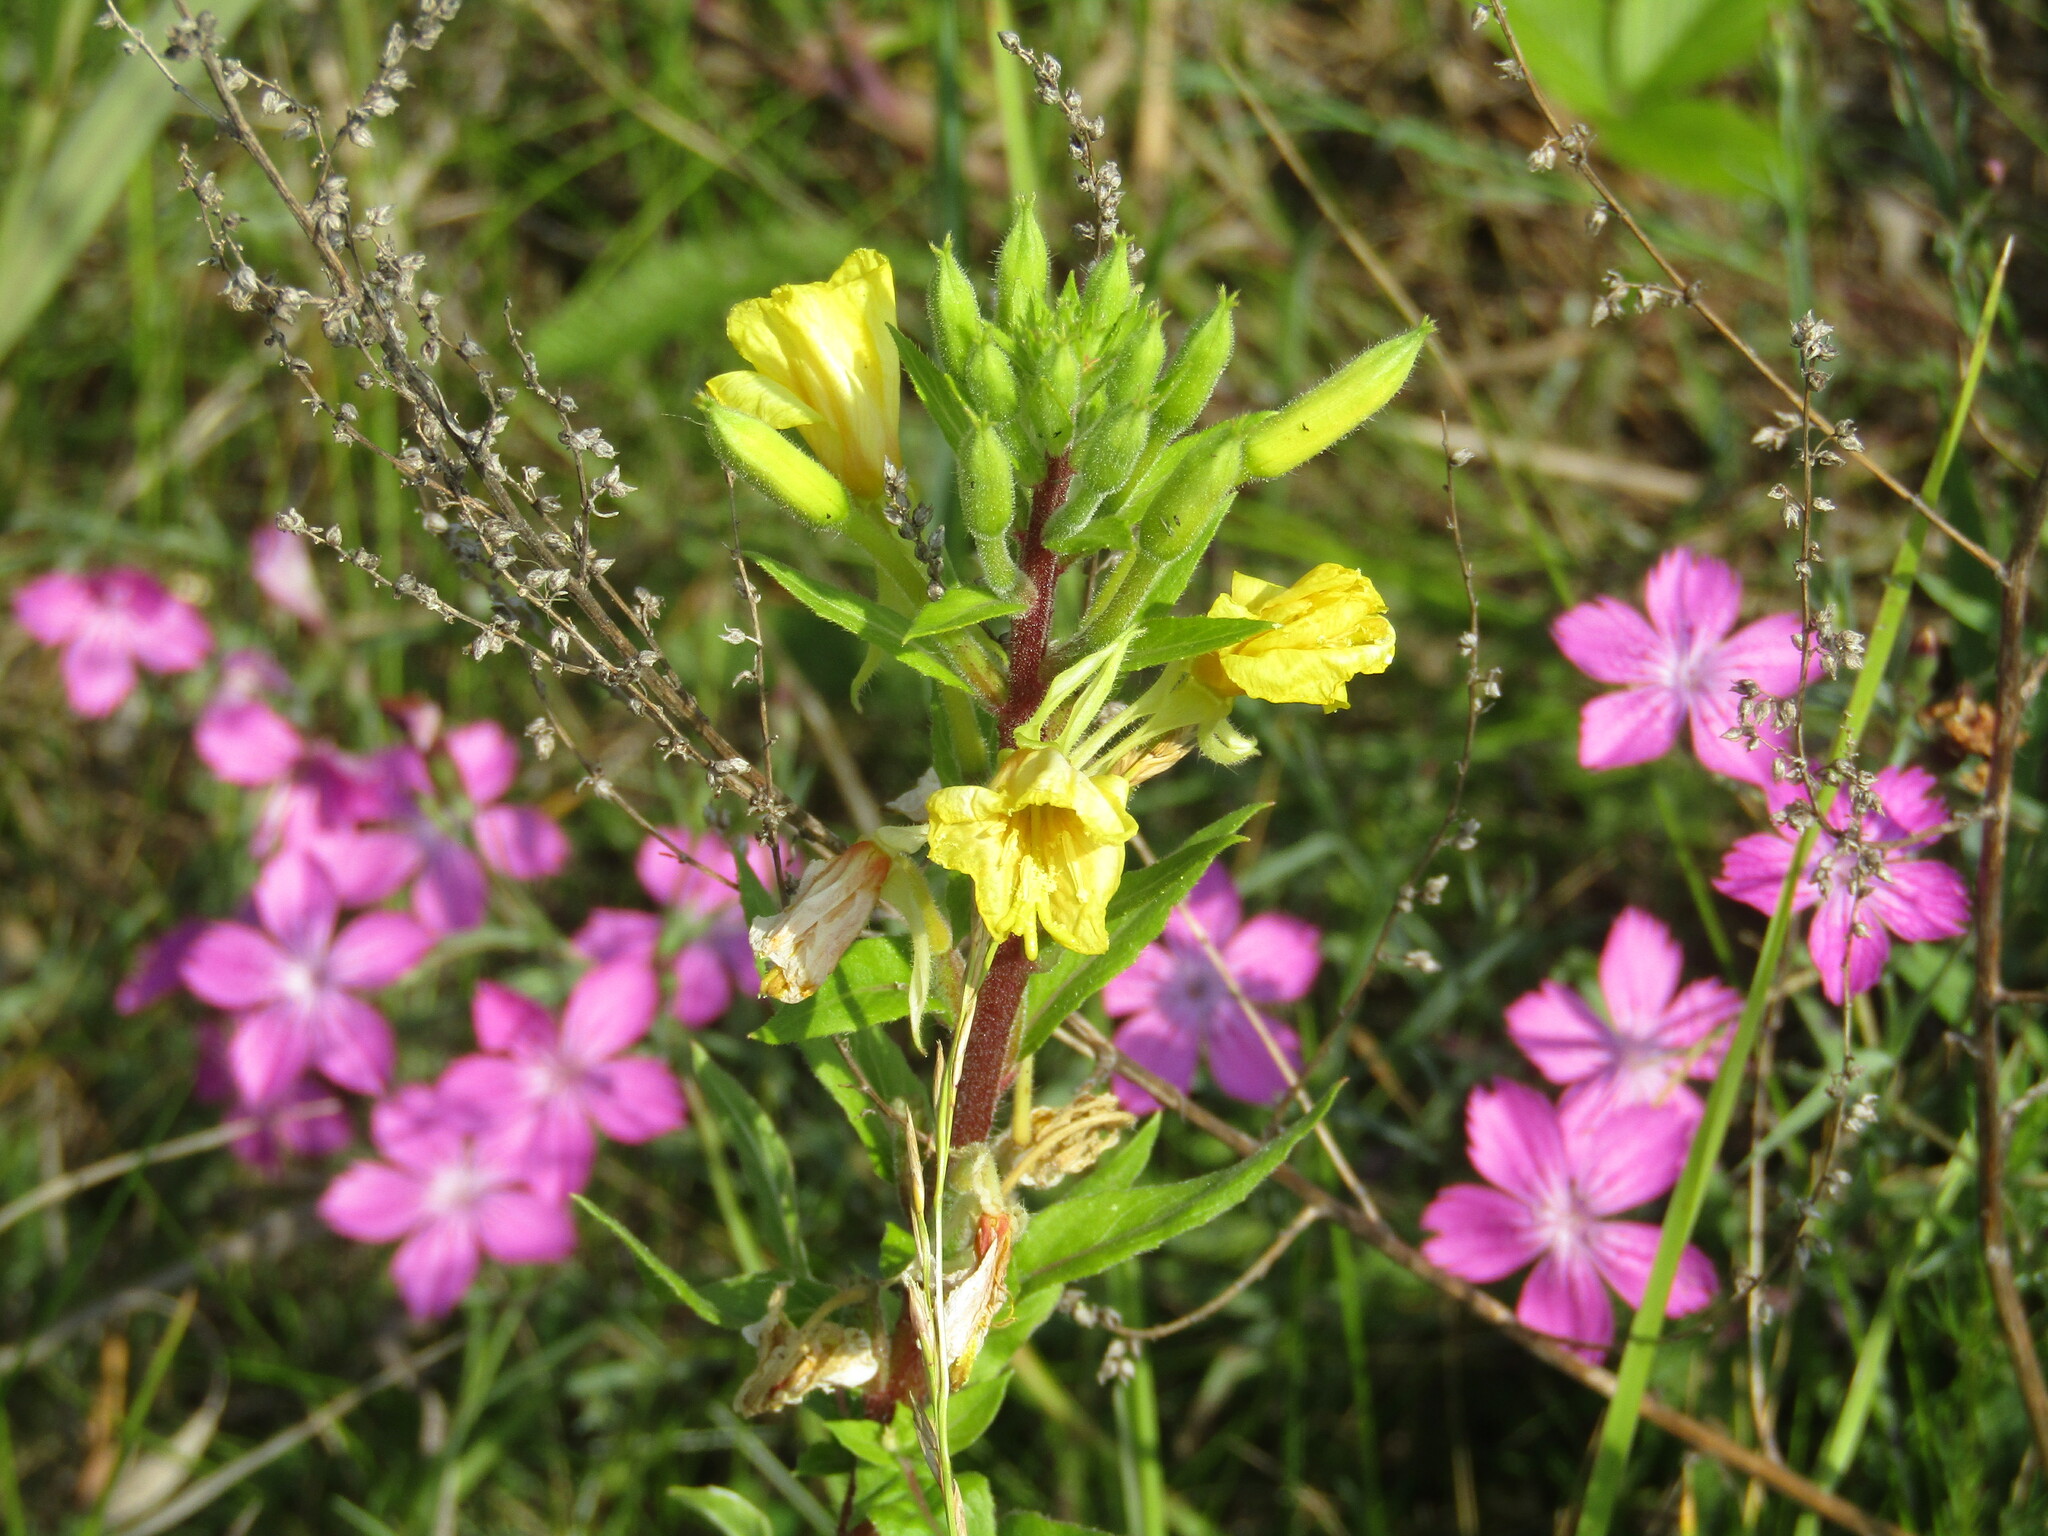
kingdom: Plantae
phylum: Tracheophyta
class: Magnoliopsida
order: Myrtales
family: Onagraceae
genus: Oenothera
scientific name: Oenothera rubricaulis
